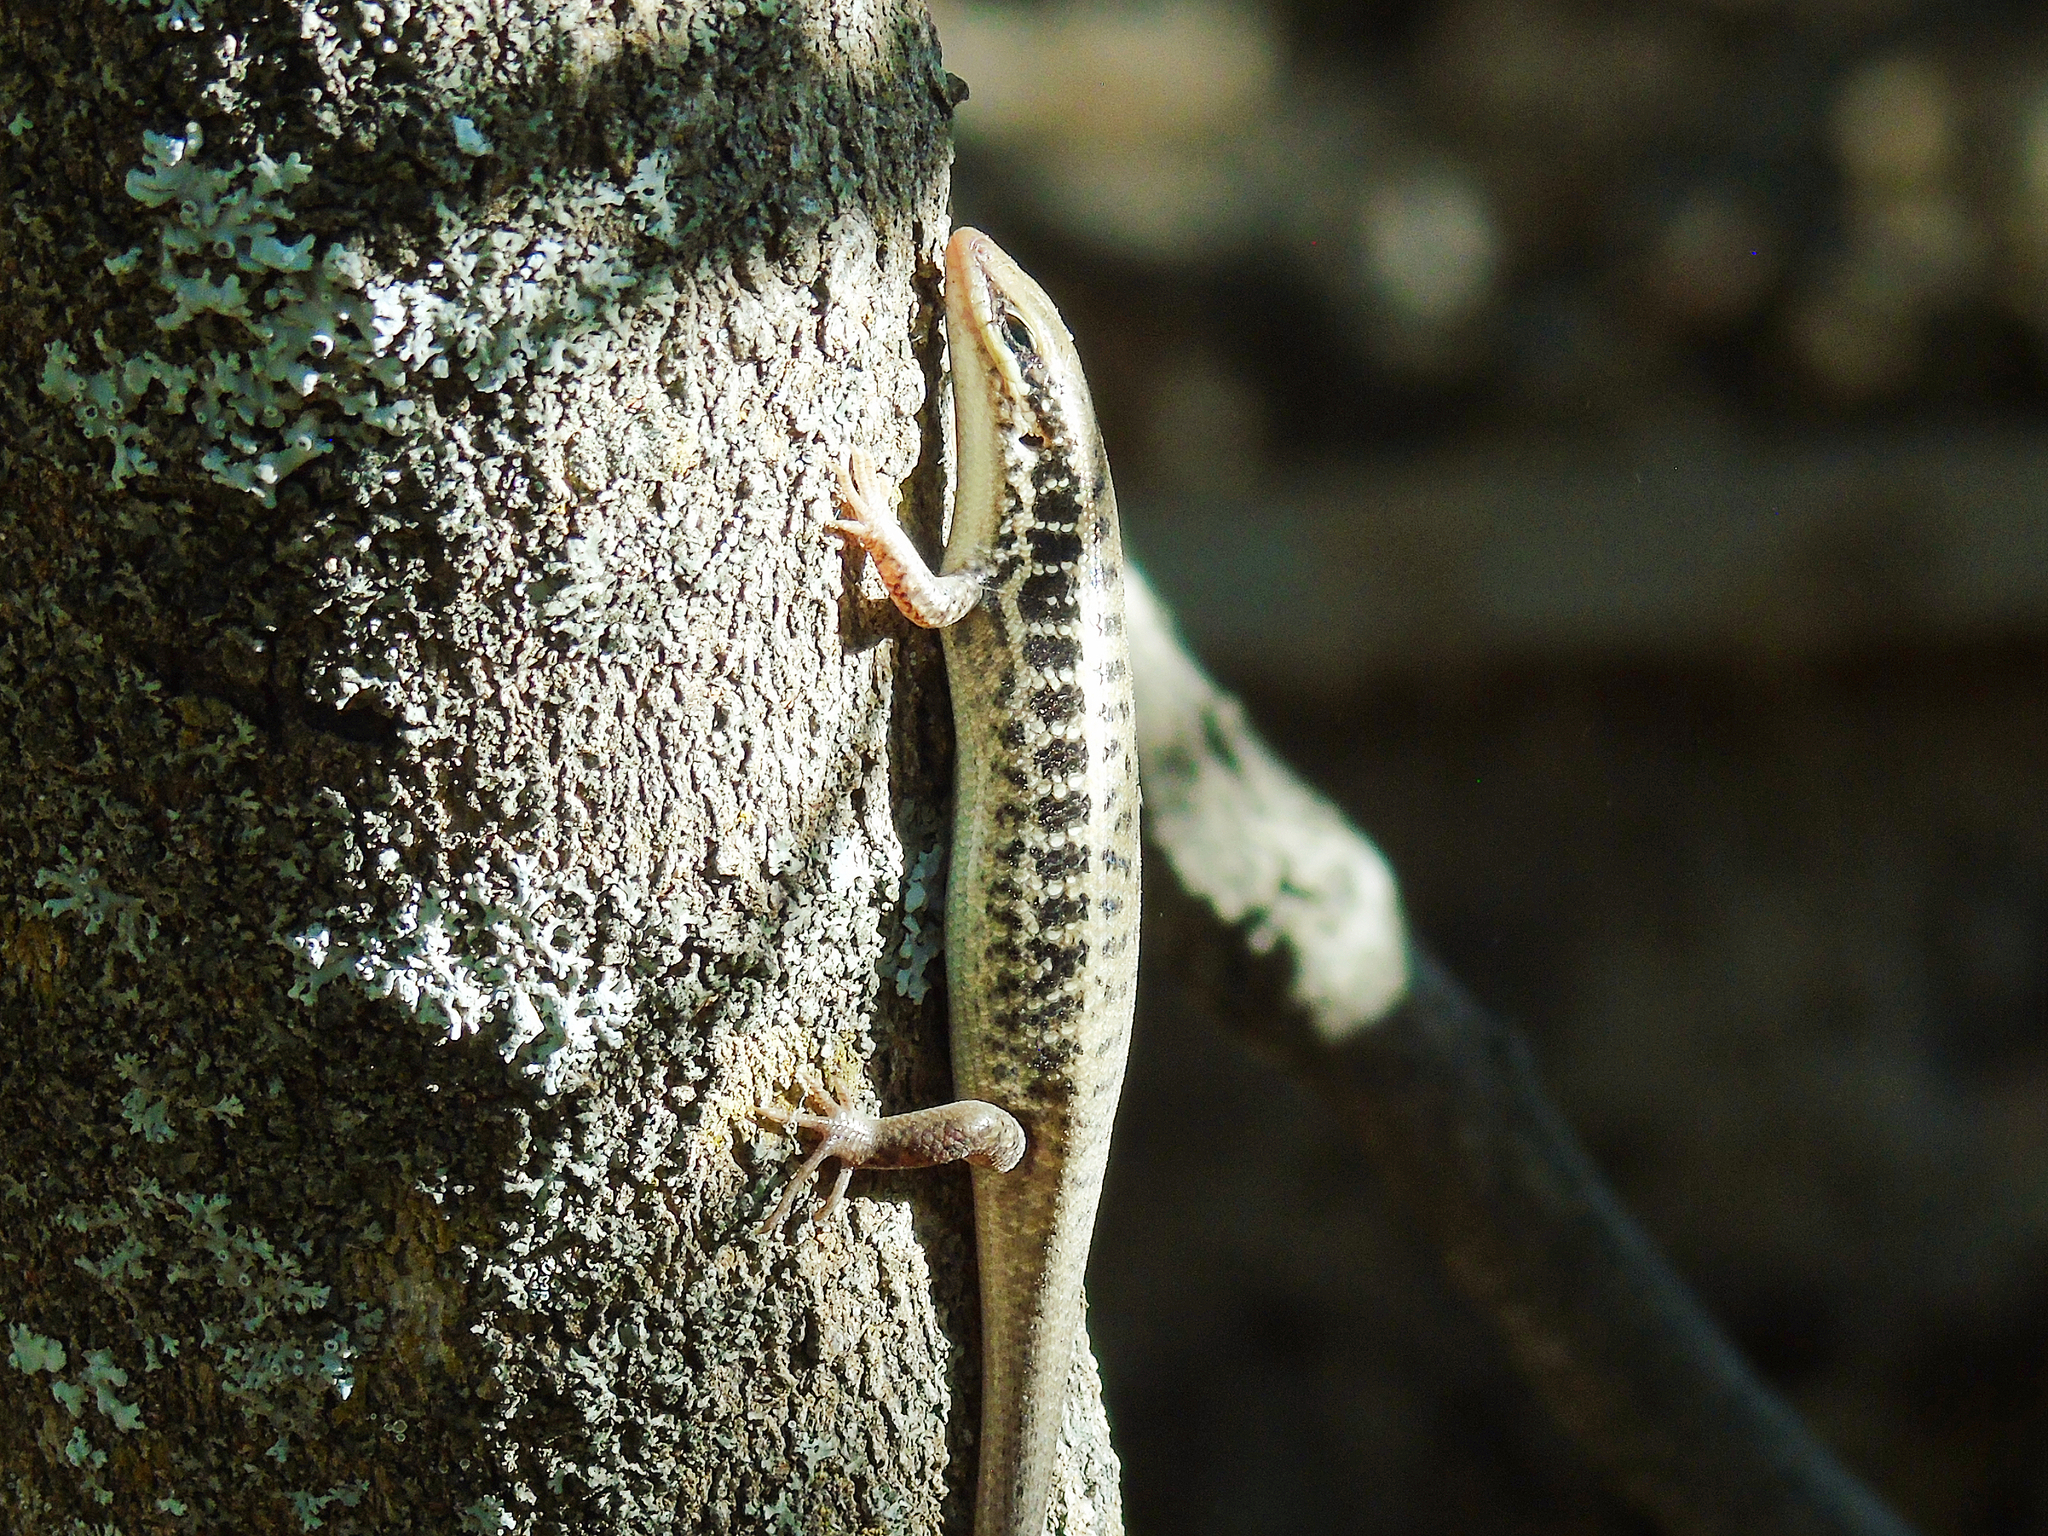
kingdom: Animalia
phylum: Chordata
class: Squamata
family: Scincidae
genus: Heremites
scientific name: Heremites auratus
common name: Golden grass mabuya
